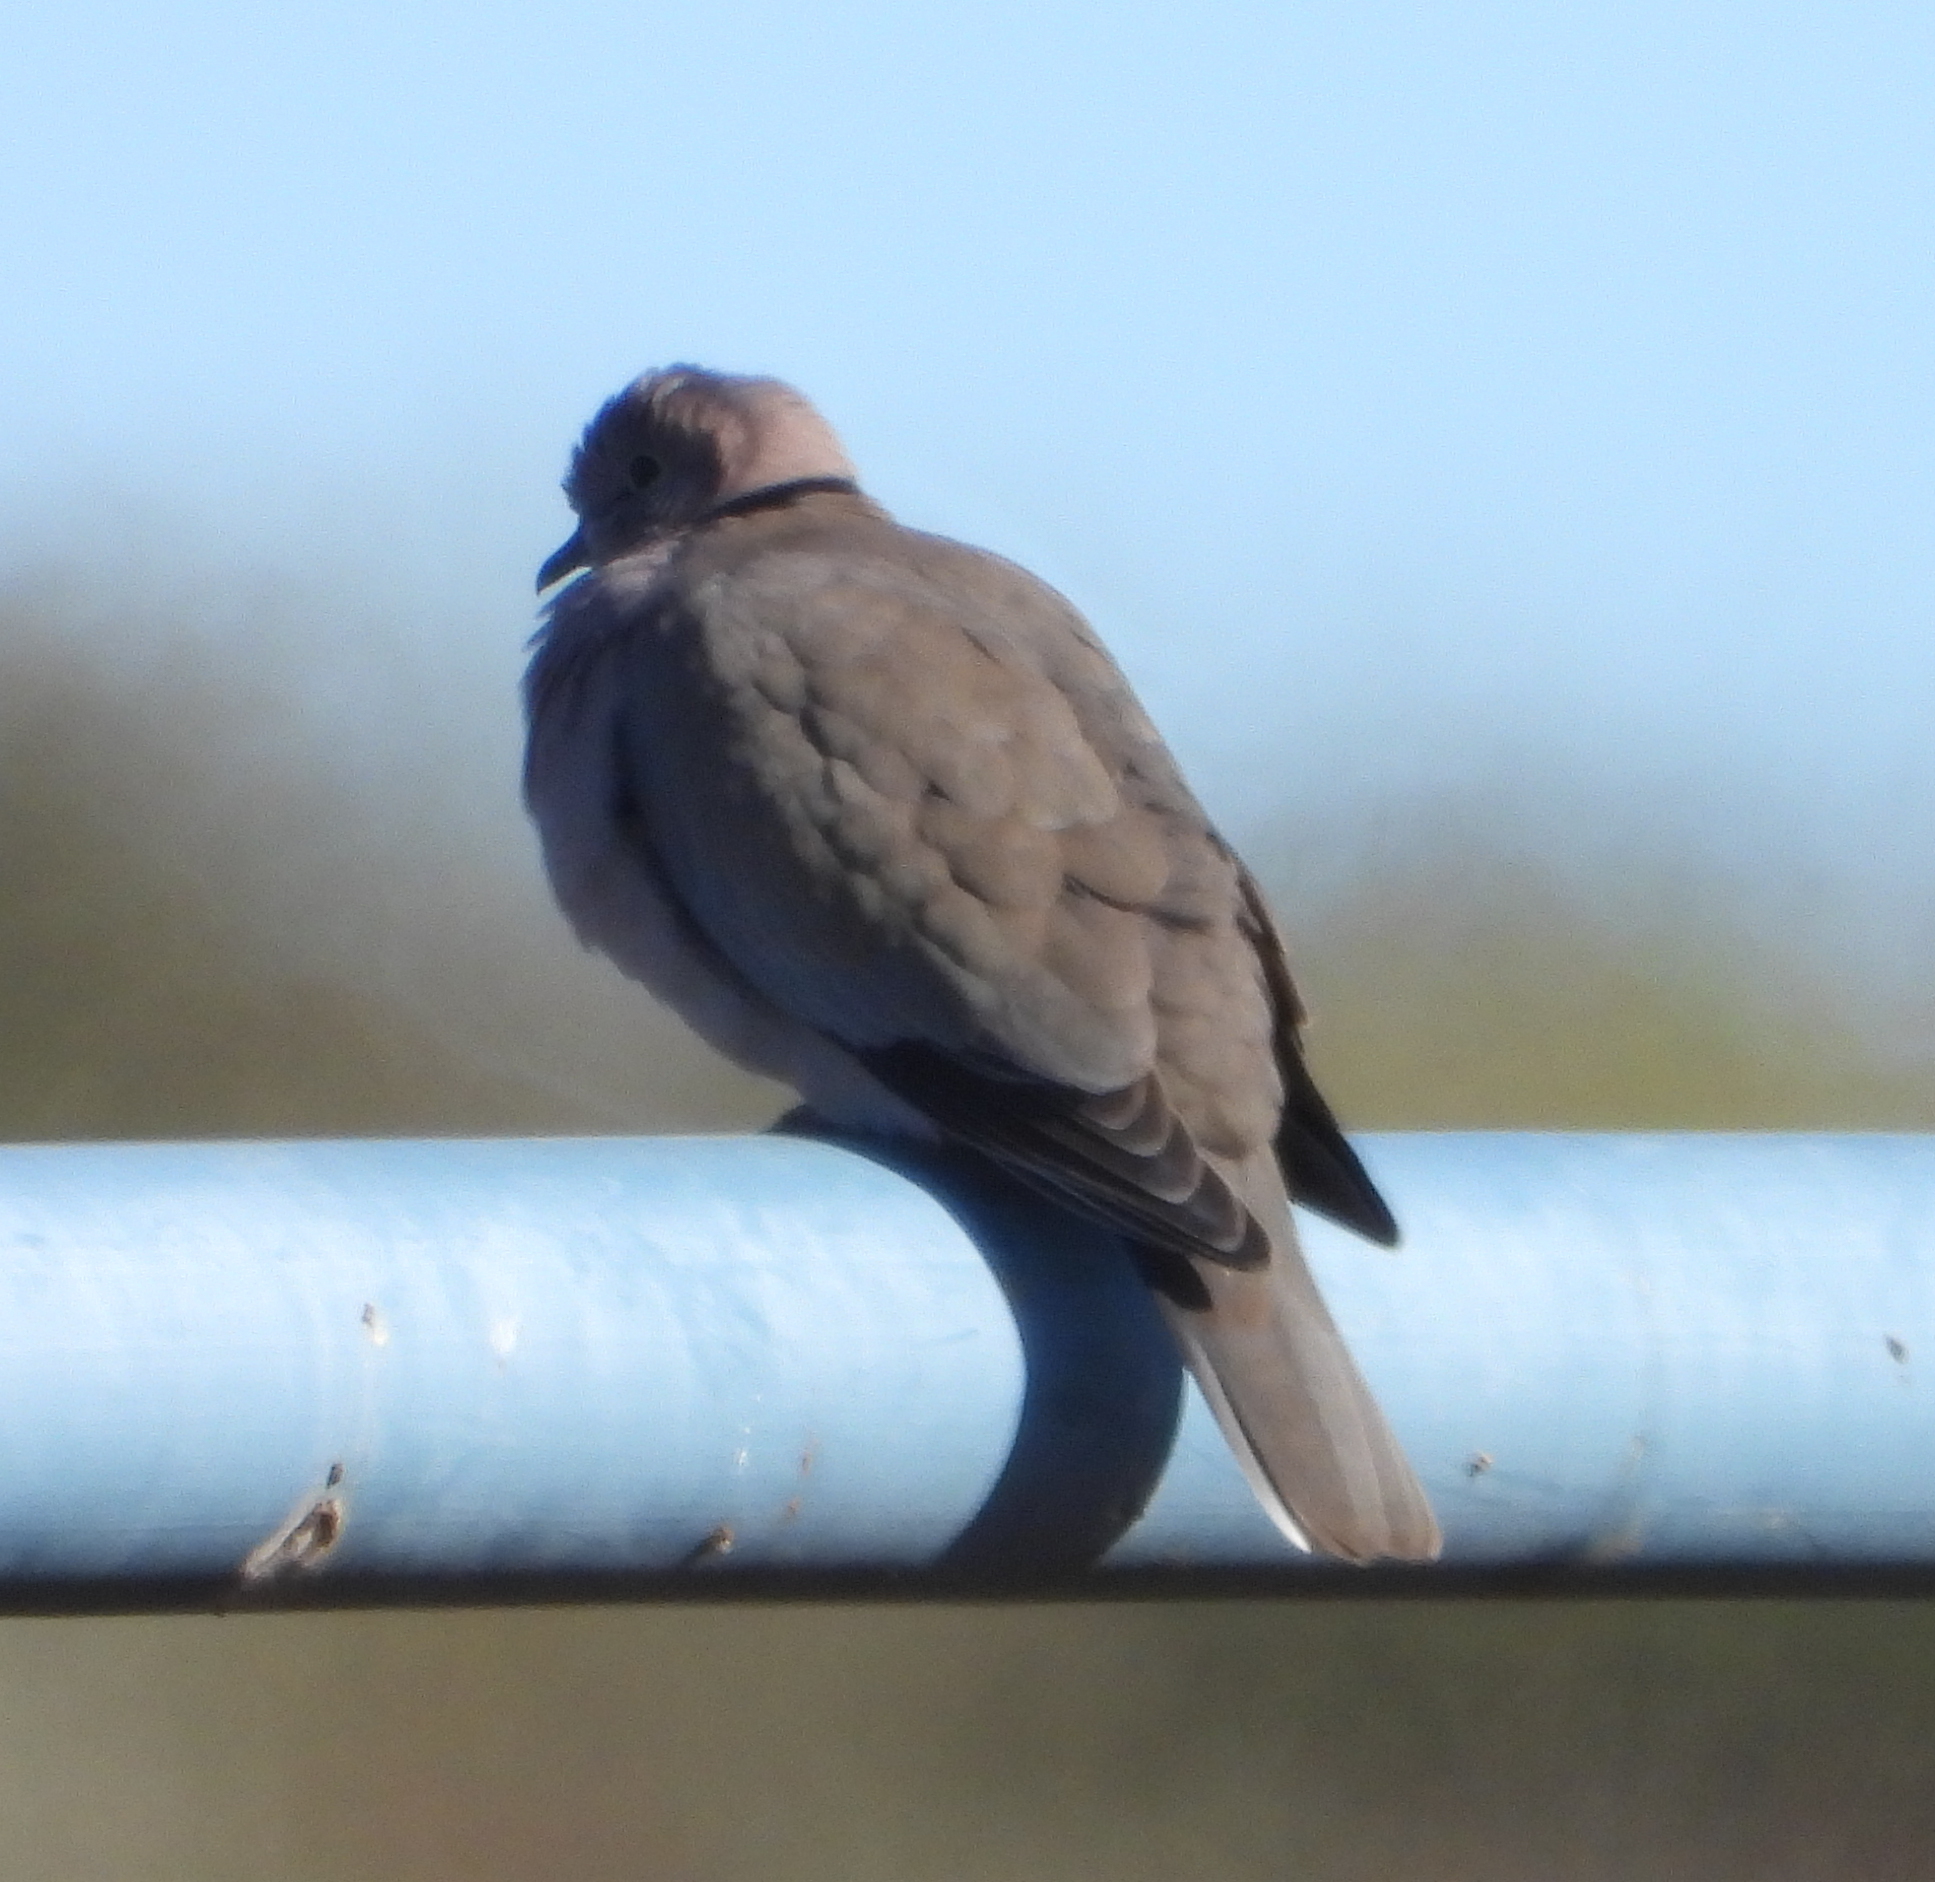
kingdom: Animalia
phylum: Chordata
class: Aves
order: Columbiformes
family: Columbidae
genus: Streptopelia
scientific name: Streptopelia capicola
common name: Ring-necked dove
